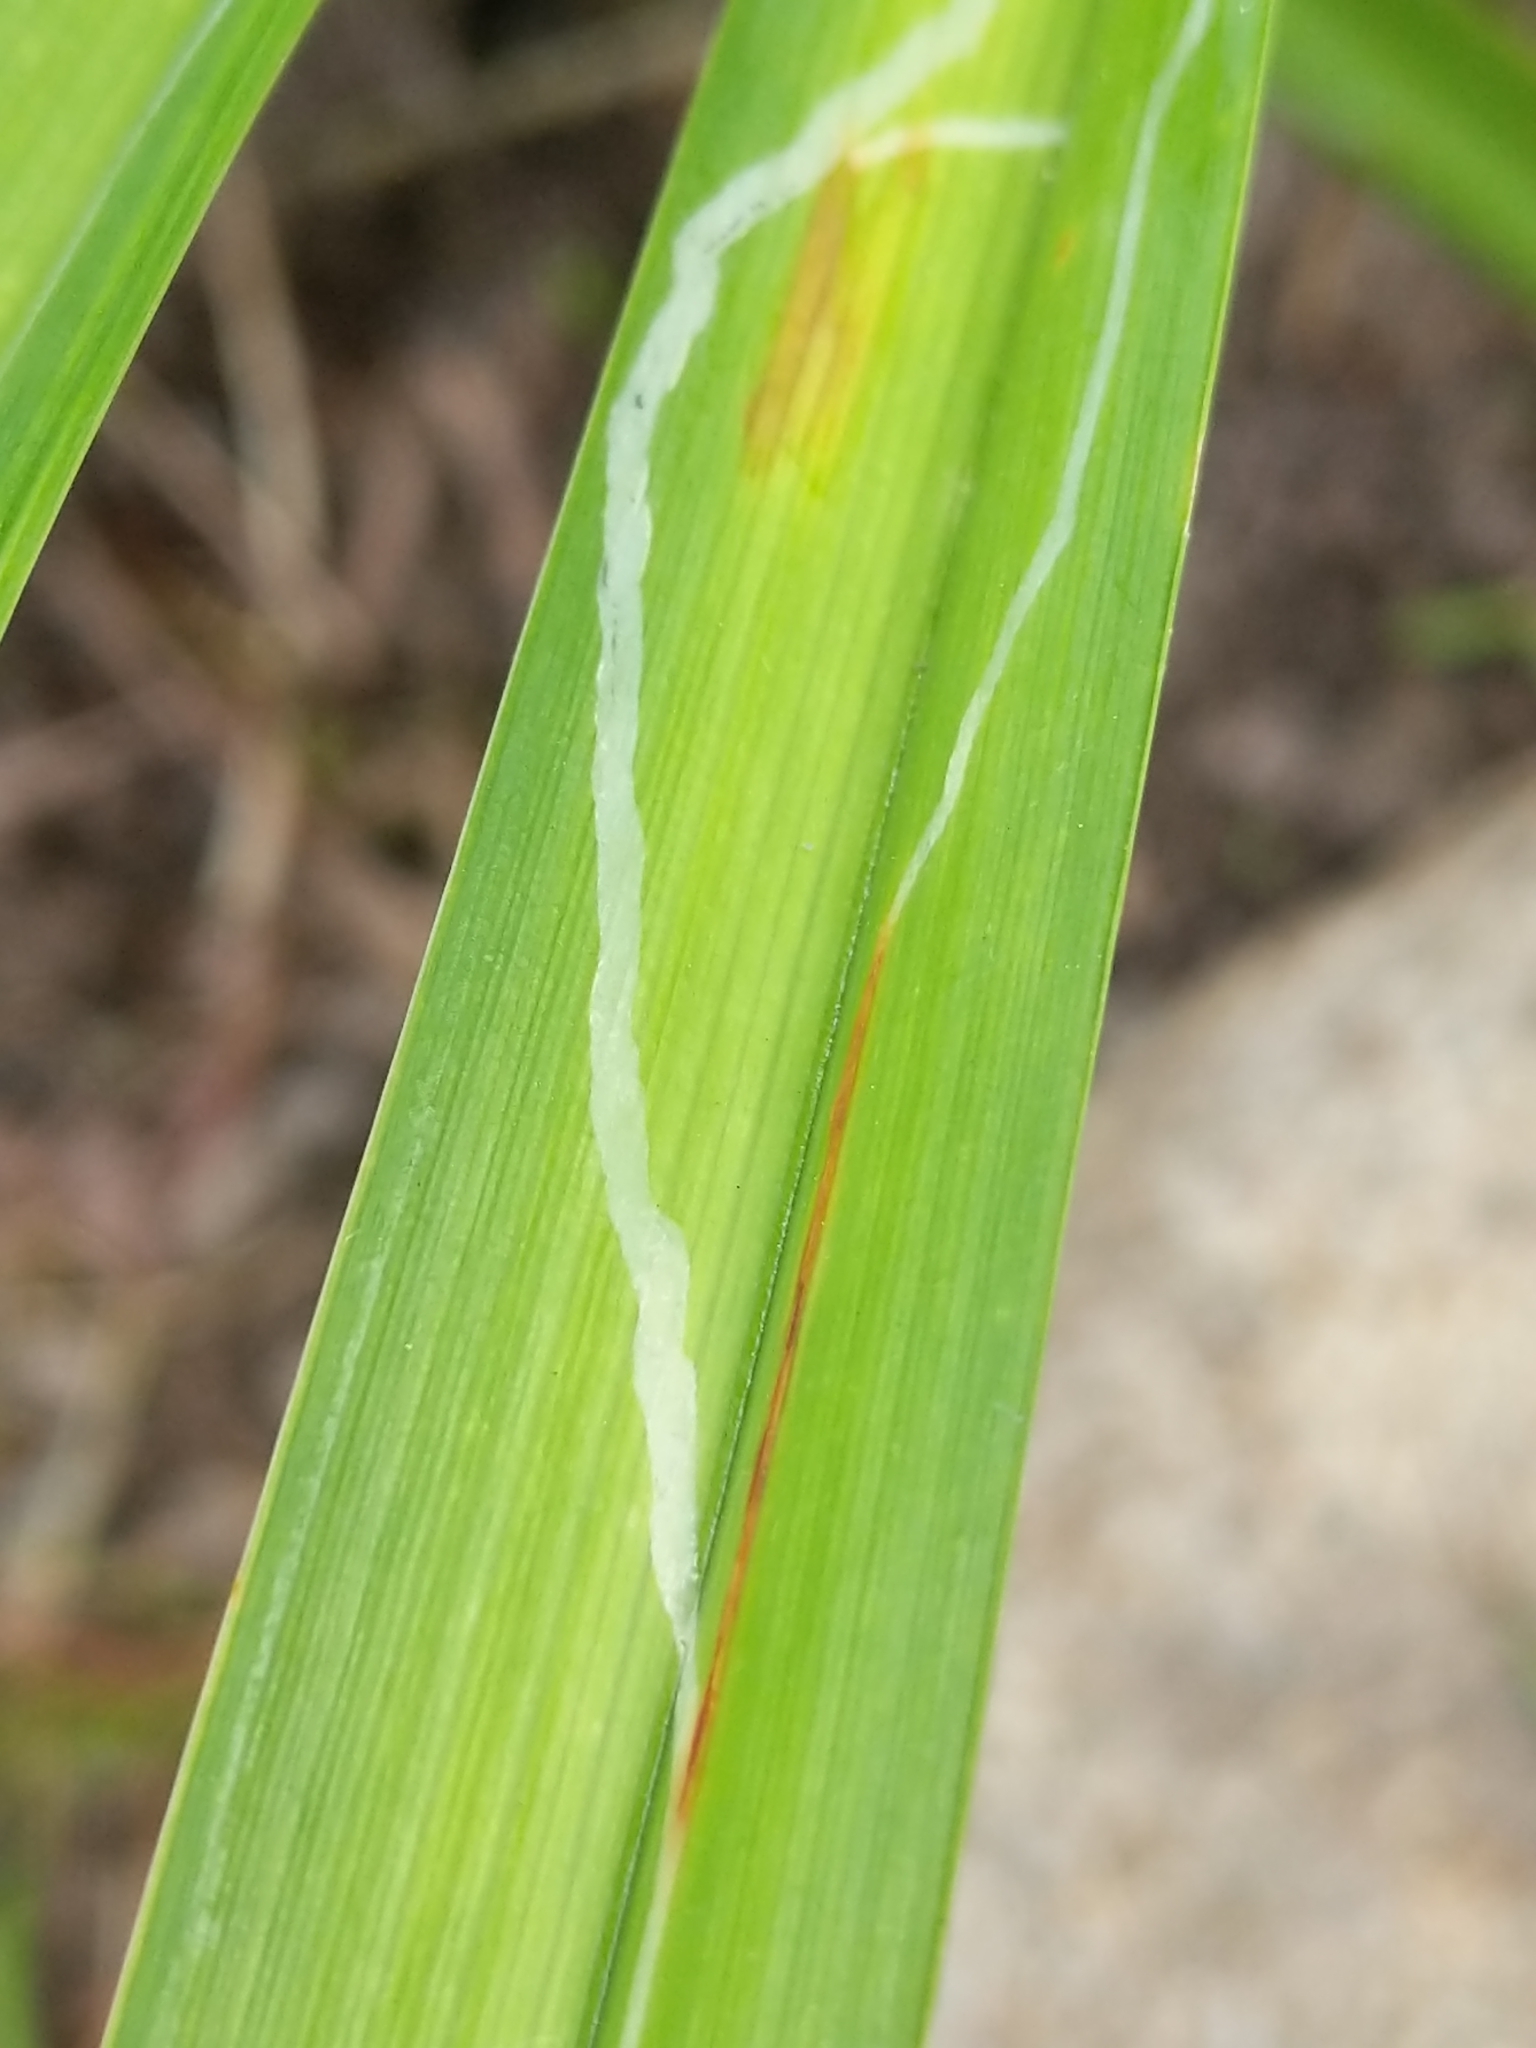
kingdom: Animalia
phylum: Arthropoda
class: Insecta
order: Diptera
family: Agromyzidae
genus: Ophiomyia
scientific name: Ophiomyia kwansonis
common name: Daylily leafminer
